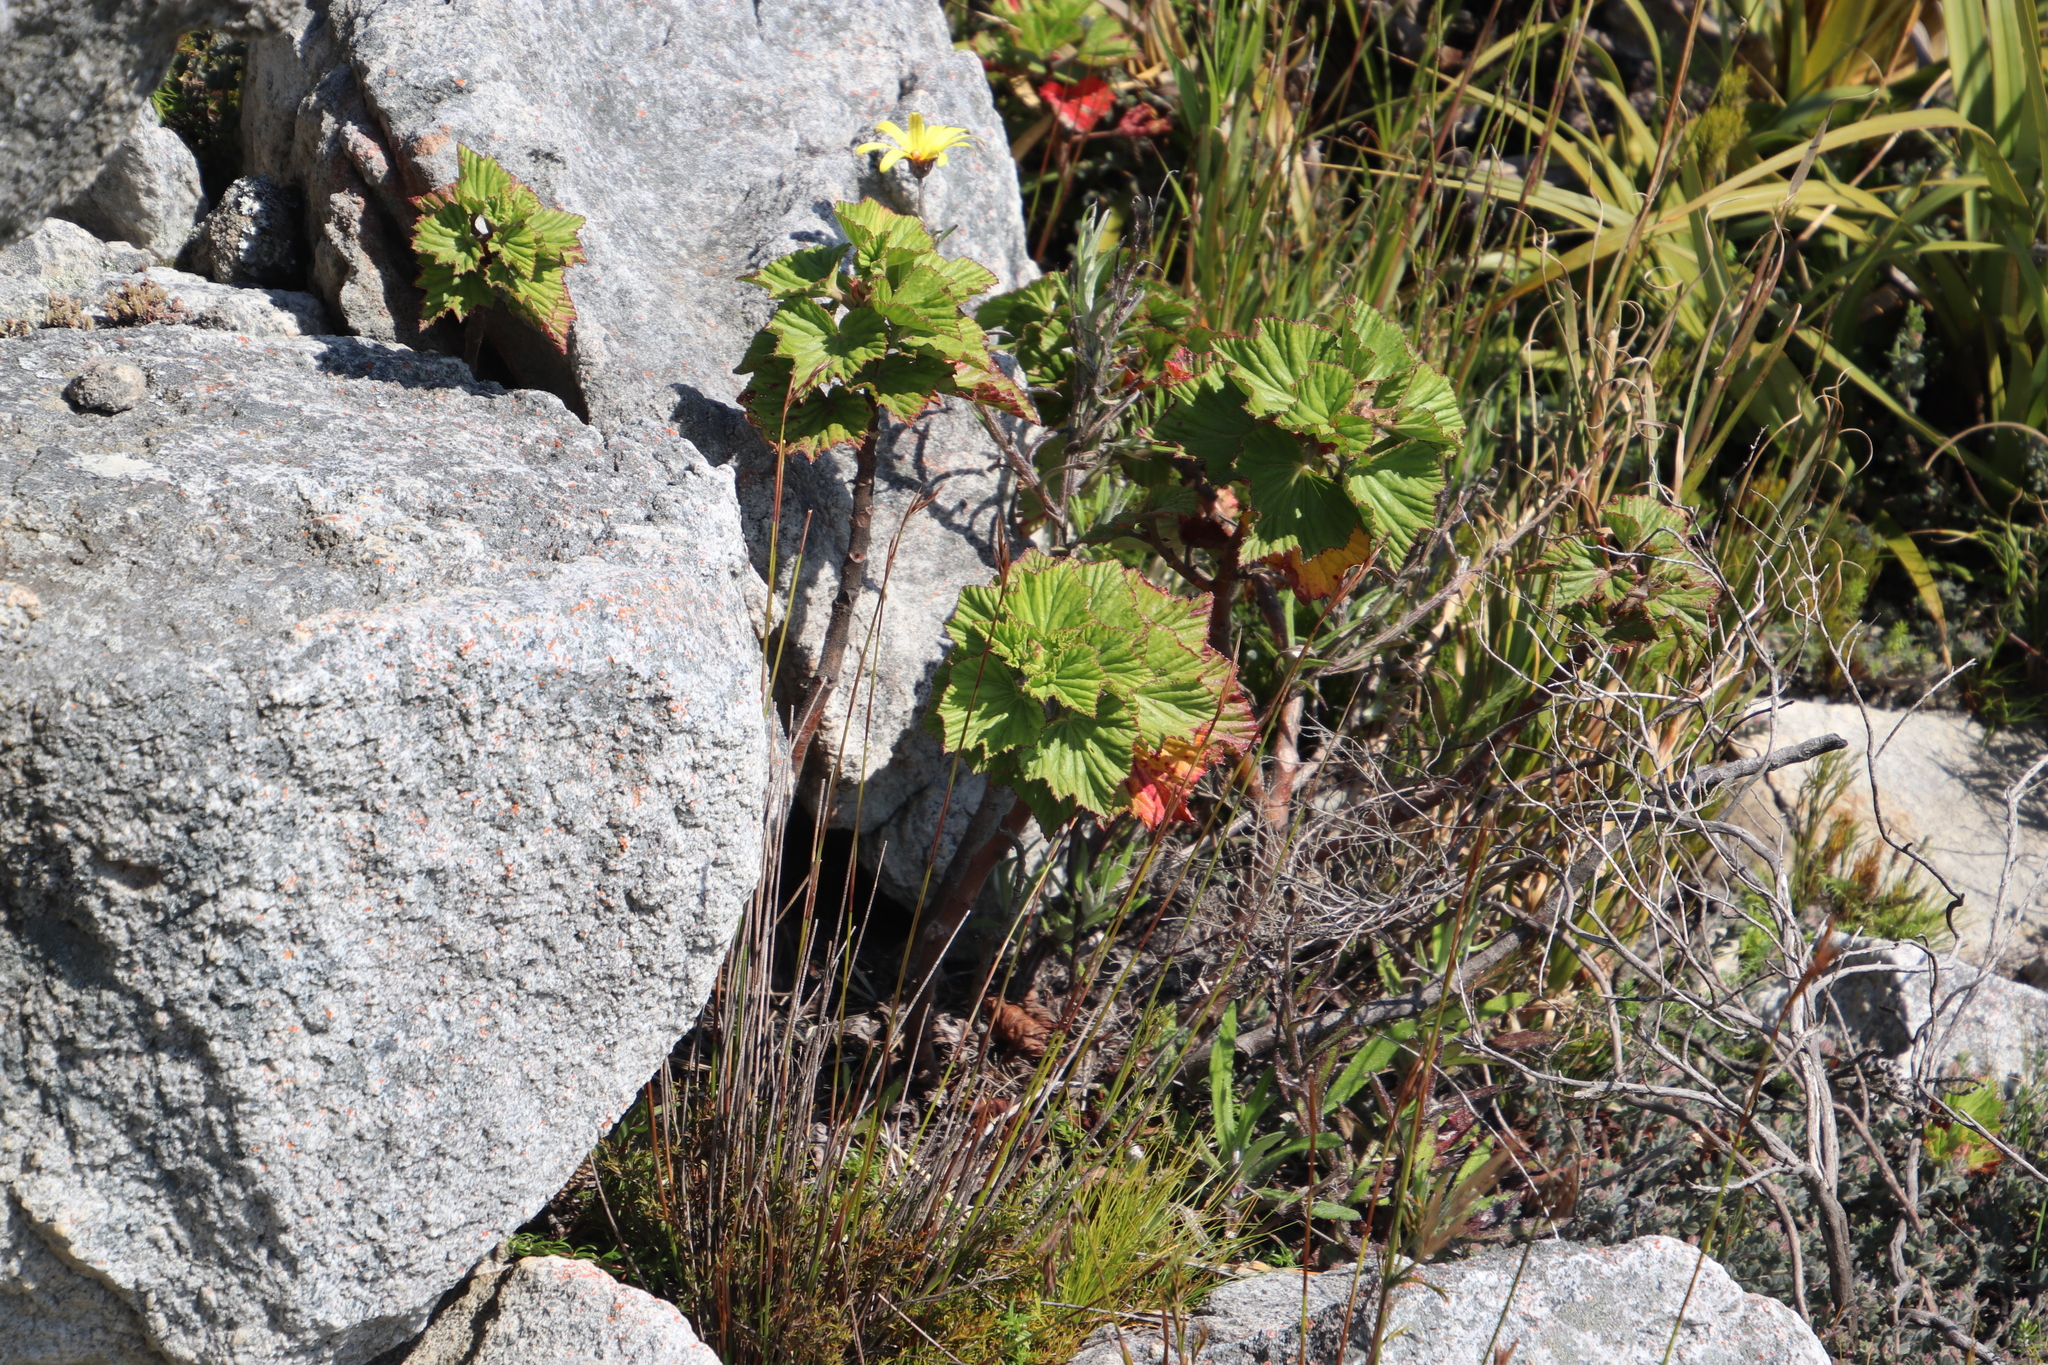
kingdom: Plantae
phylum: Tracheophyta
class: Magnoliopsida
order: Geraniales
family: Geraniaceae
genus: Pelargonium
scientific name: Pelargonium cucullatum
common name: Tree pelargonium
